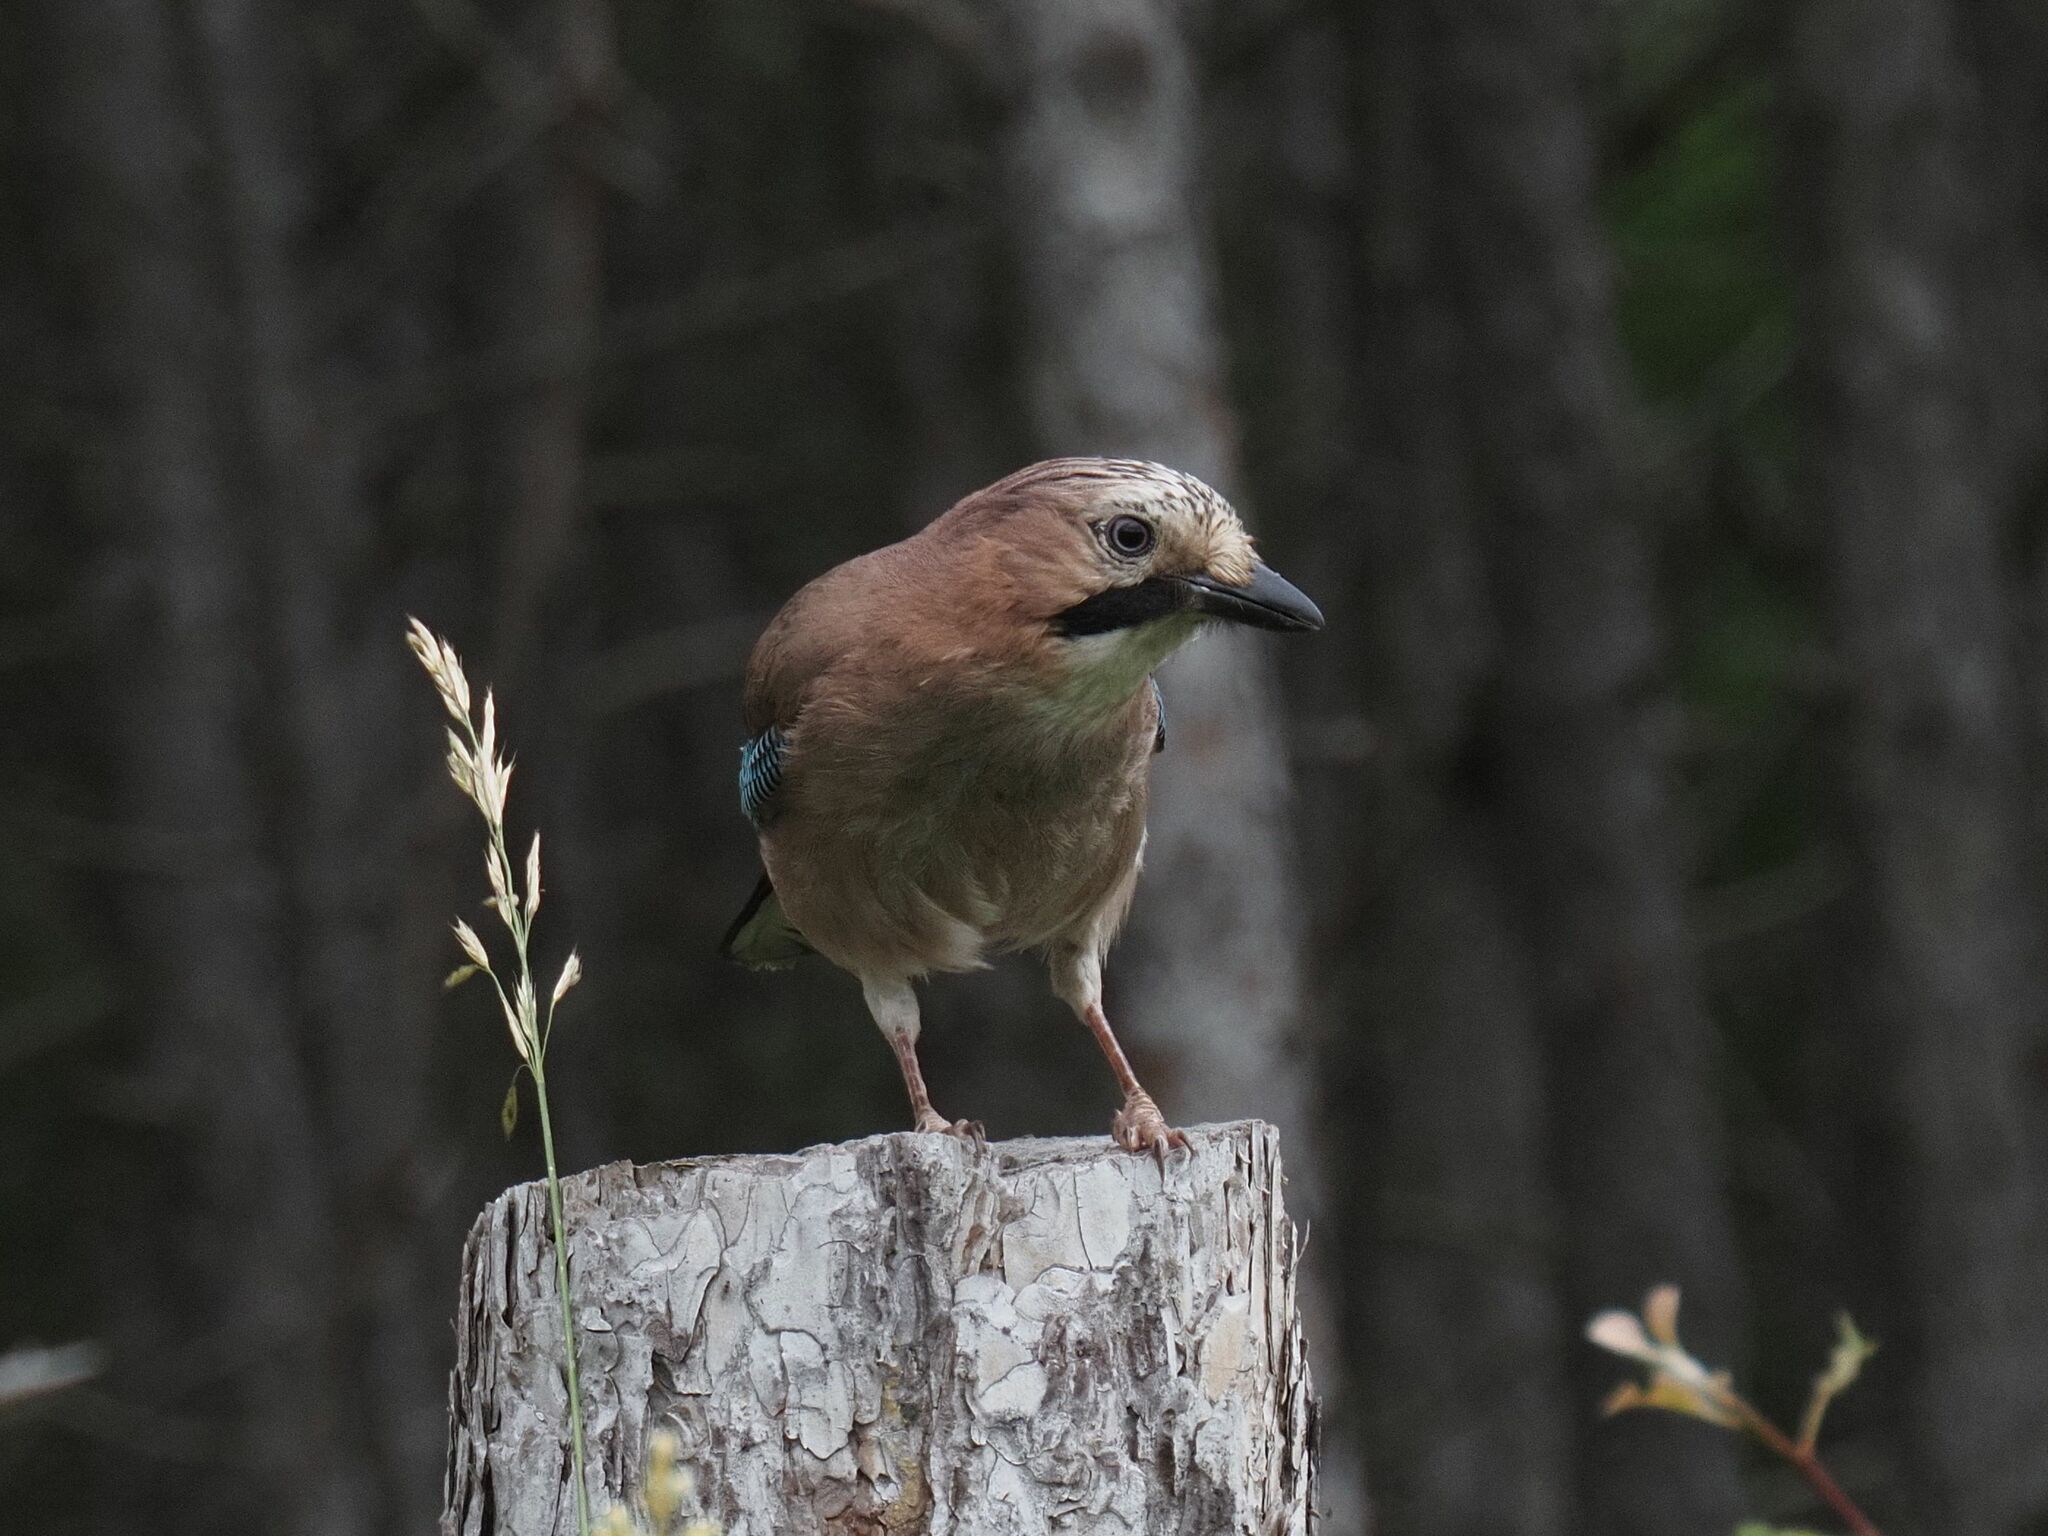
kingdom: Animalia
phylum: Chordata
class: Aves
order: Passeriformes
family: Corvidae
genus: Garrulus
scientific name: Garrulus glandarius
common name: Eurasian jay
